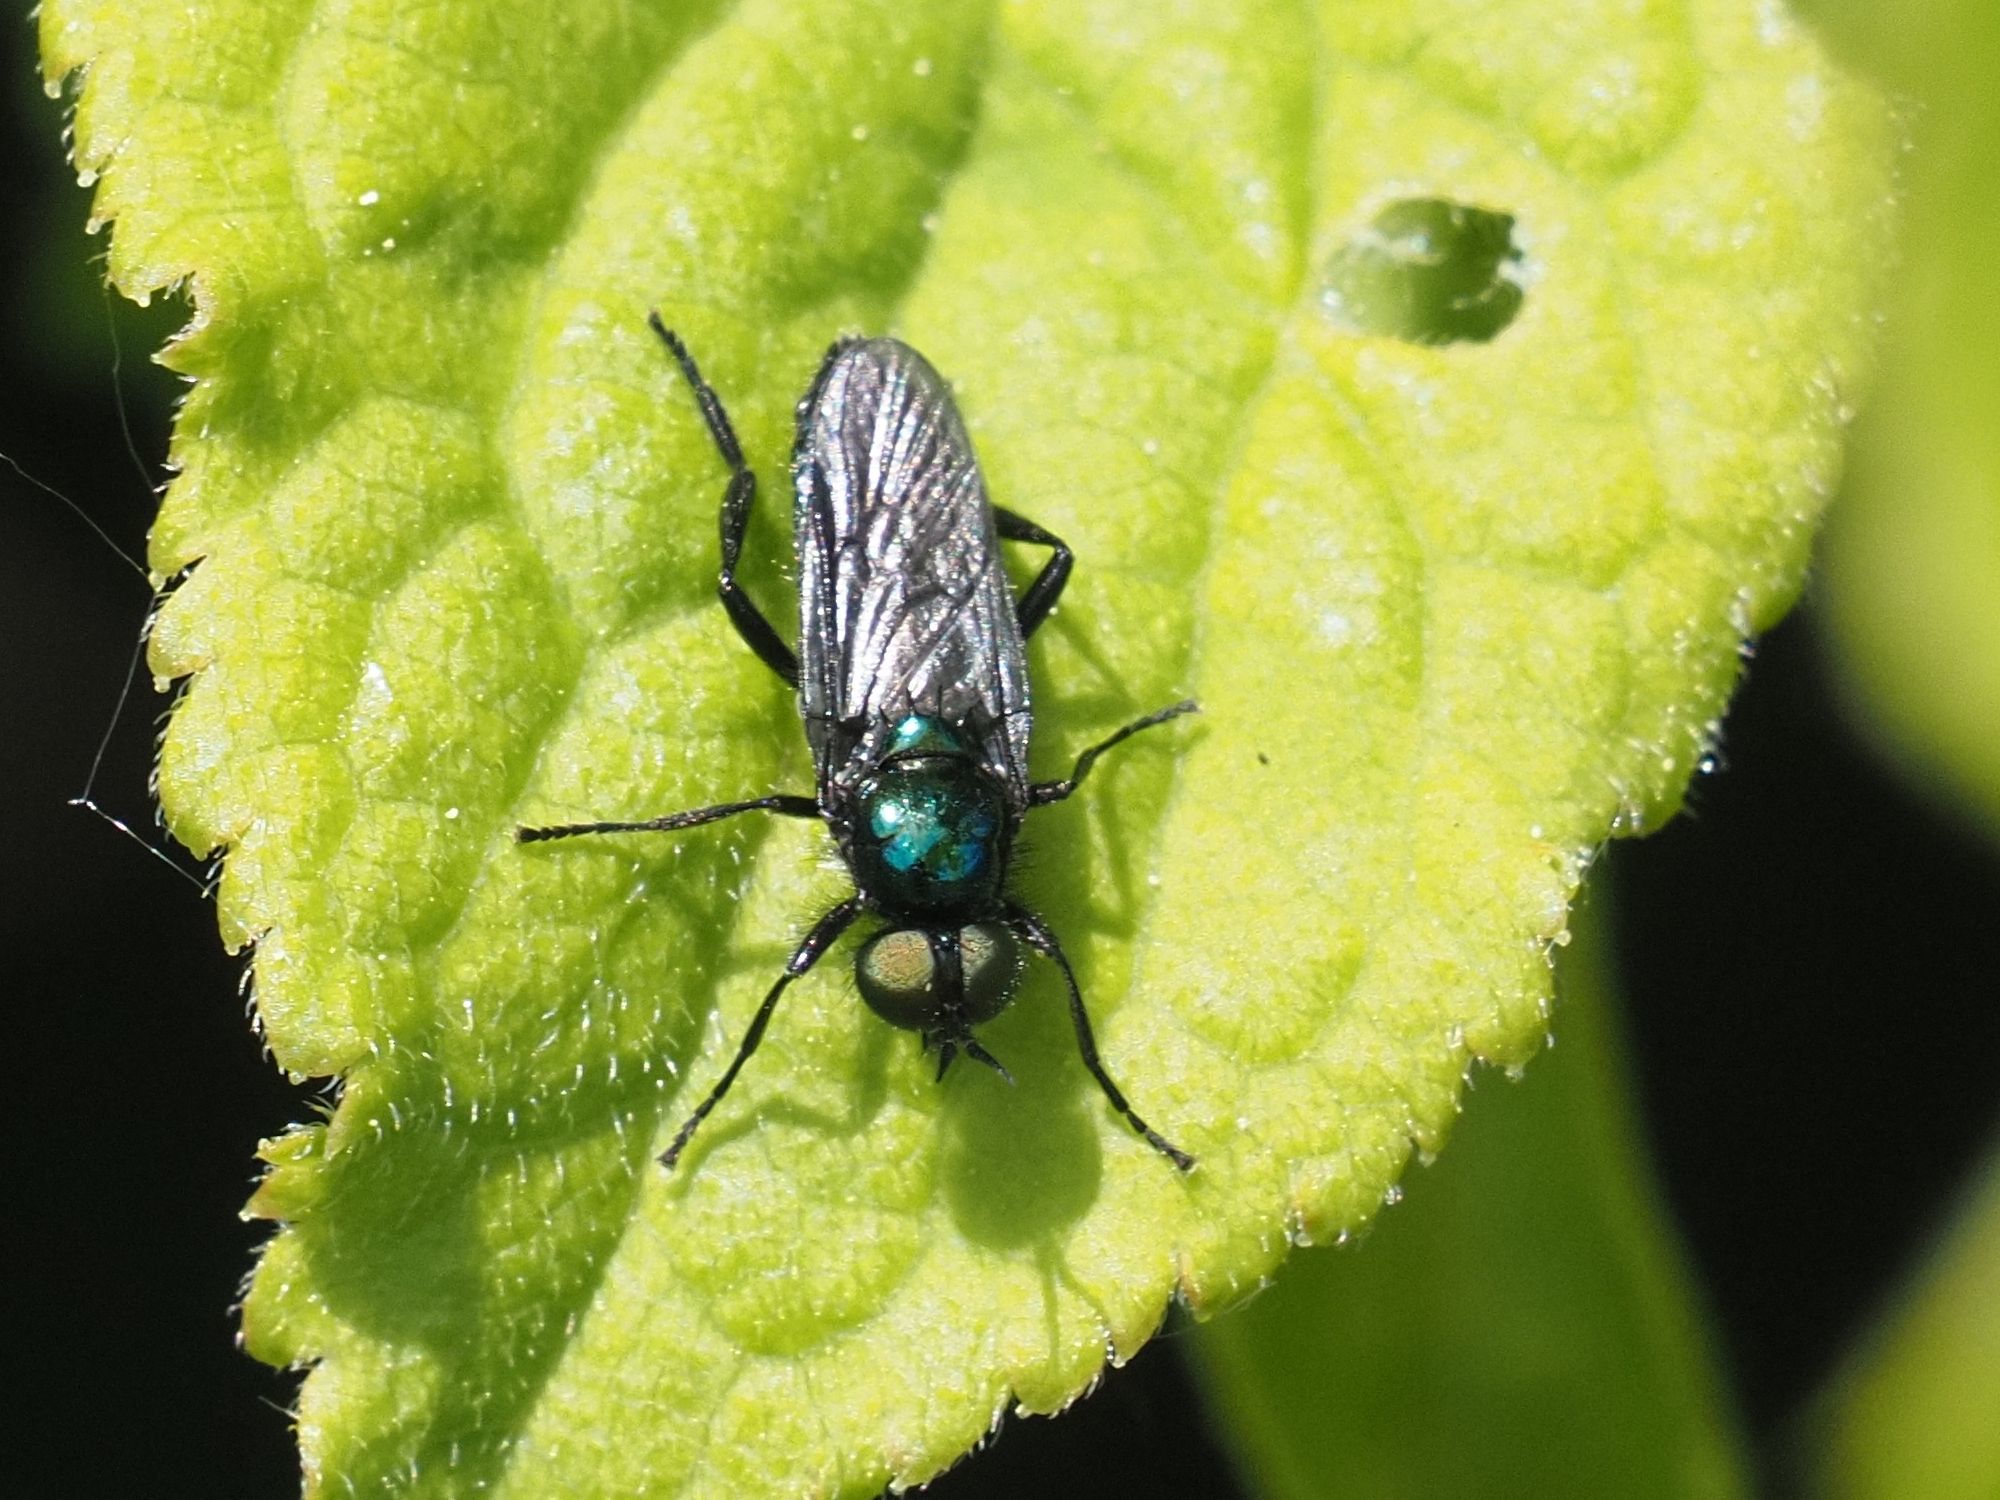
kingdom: Animalia
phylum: Arthropoda
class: Insecta
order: Diptera
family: Stratiomyidae
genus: Actina
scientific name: Actina chalybea
